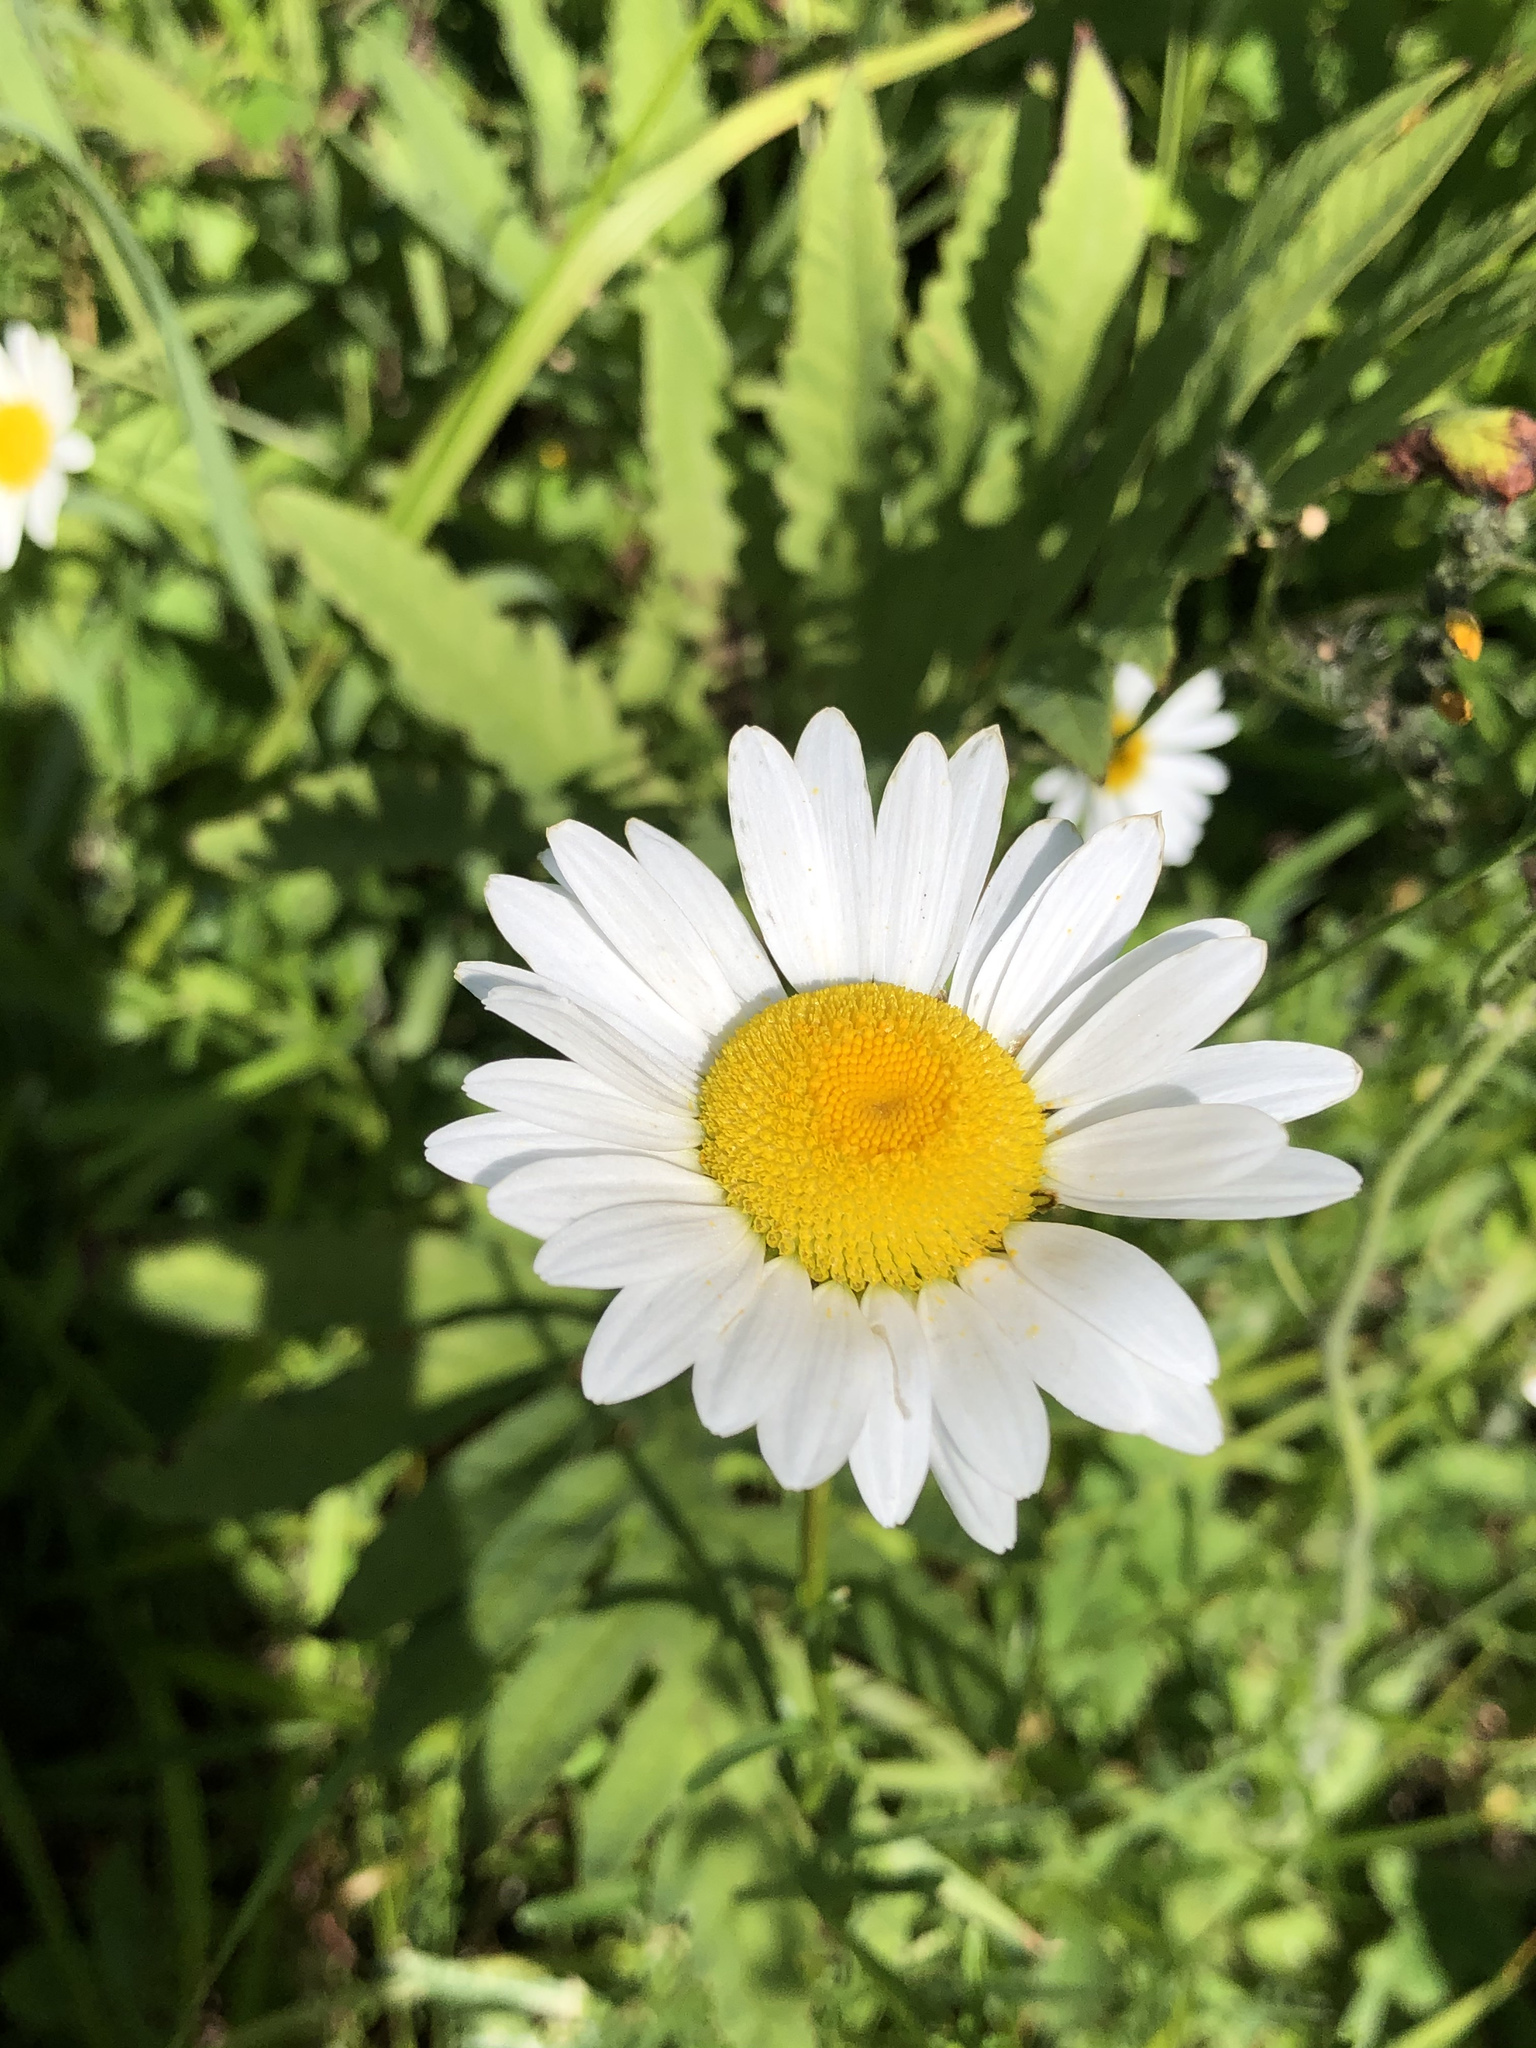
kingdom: Plantae
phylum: Tracheophyta
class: Magnoliopsida
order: Asterales
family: Asteraceae
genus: Leucanthemum
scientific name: Leucanthemum vulgare
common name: Oxeye daisy
